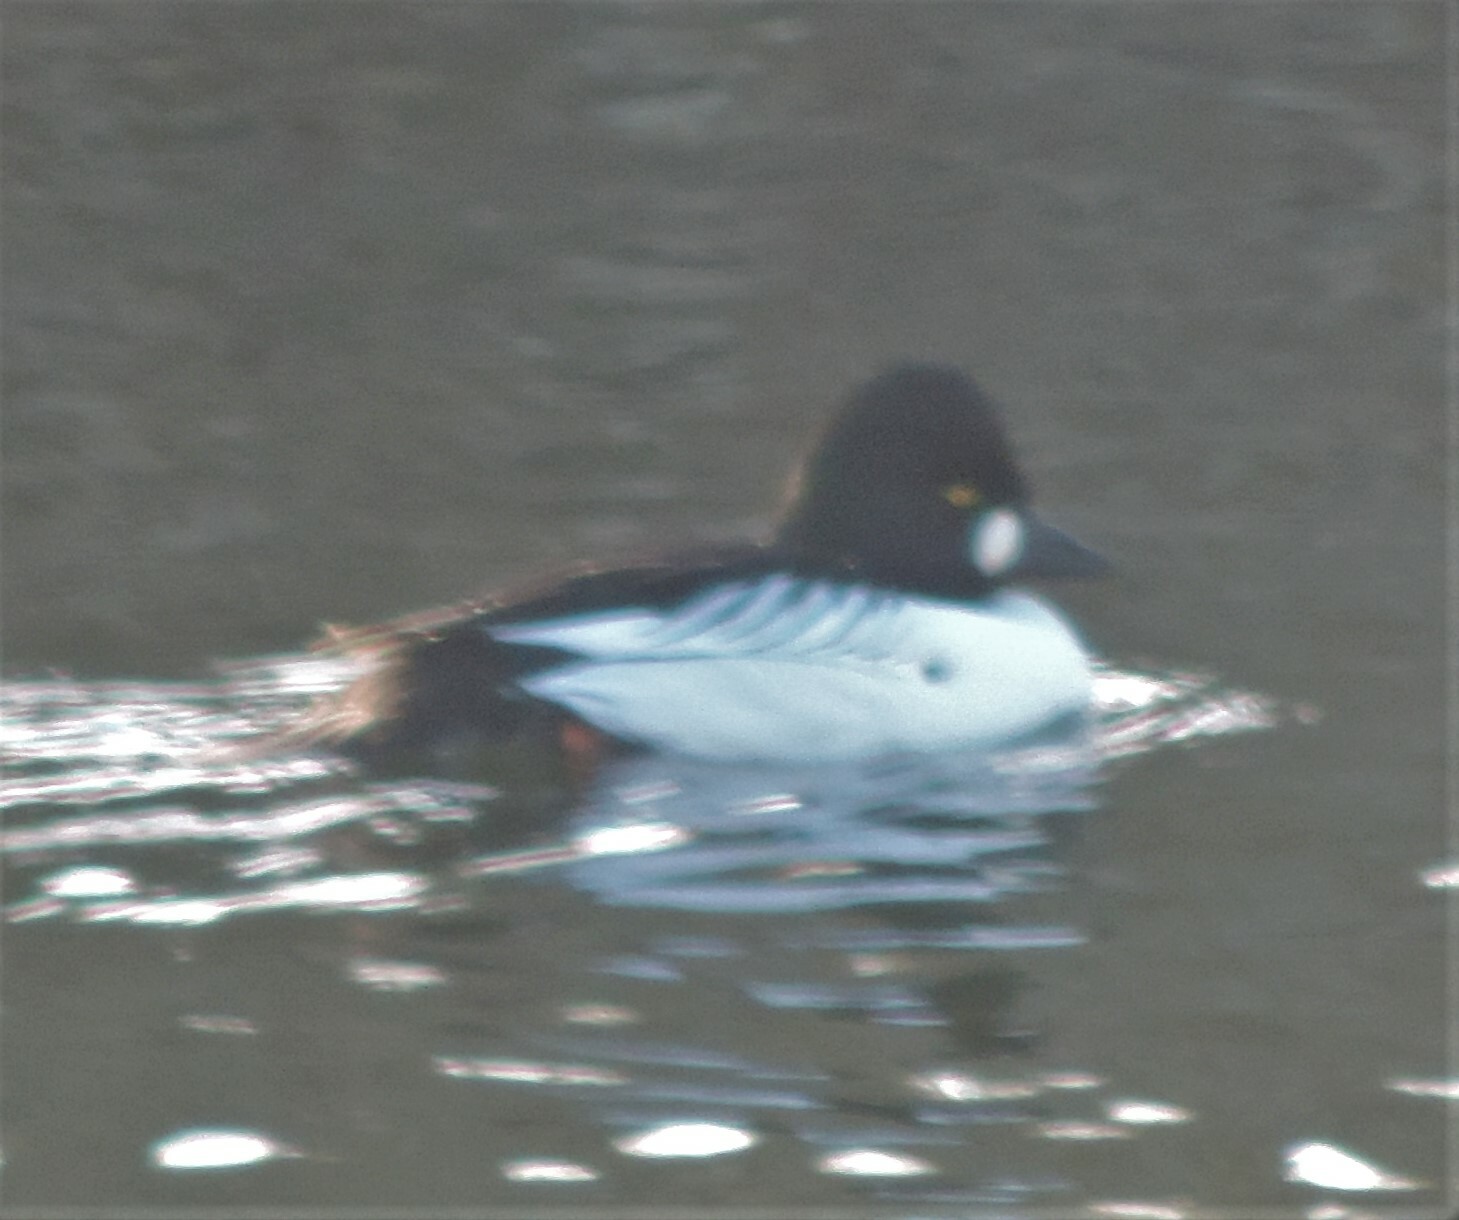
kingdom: Animalia
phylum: Chordata
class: Aves
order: Anseriformes
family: Anatidae
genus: Bucephala
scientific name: Bucephala clangula
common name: Common goldeneye
